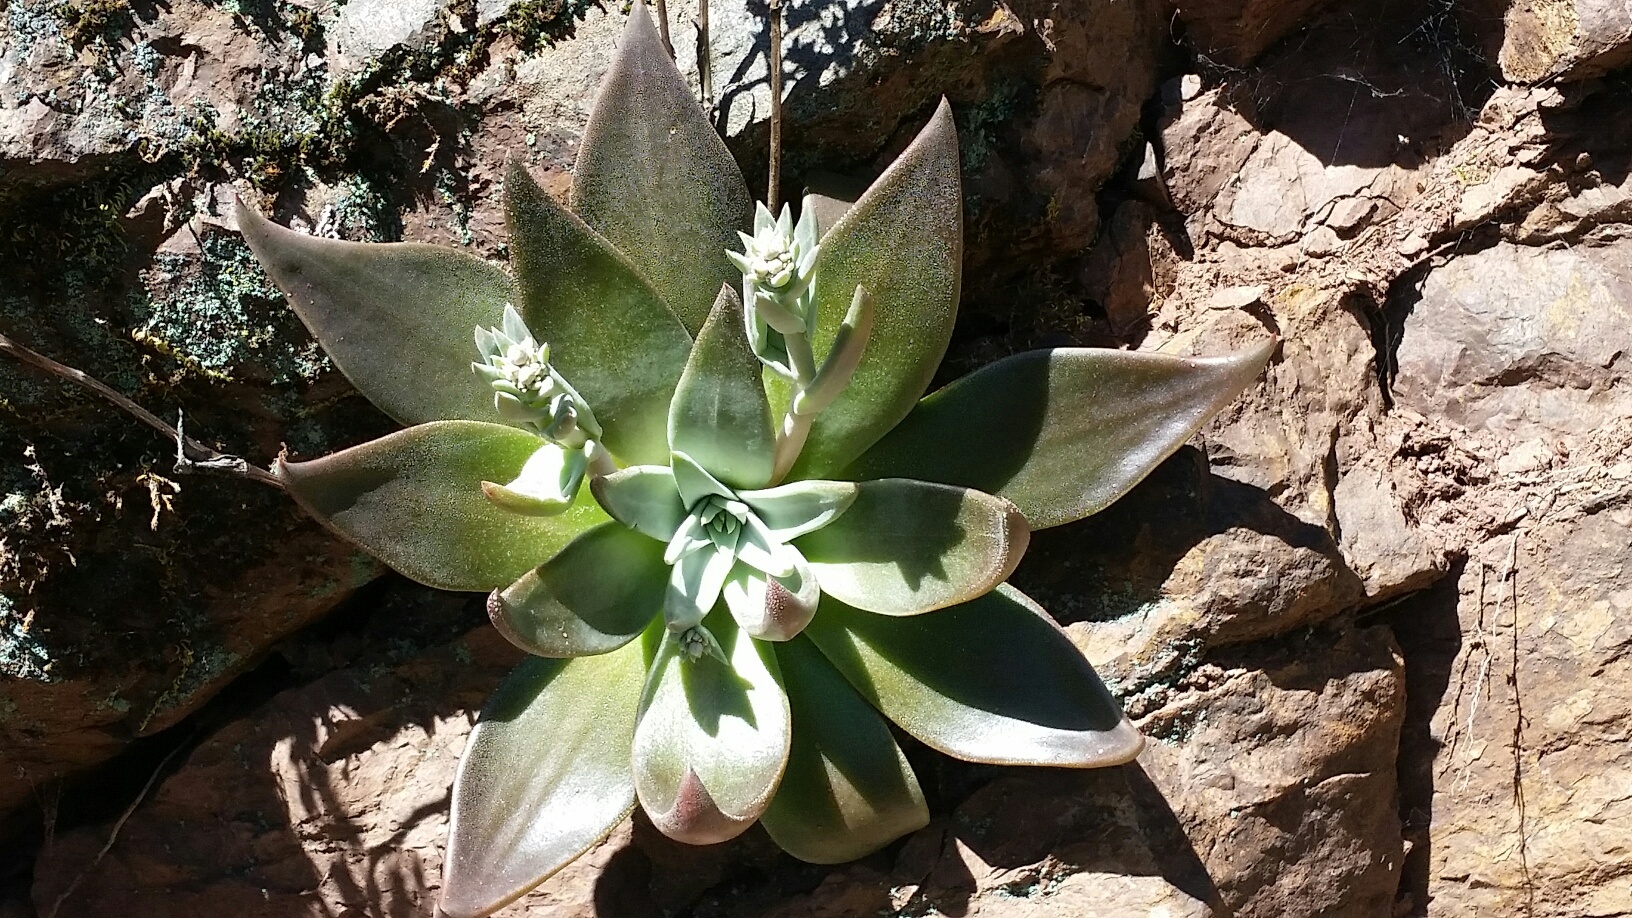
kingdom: Plantae
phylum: Tracheophyta
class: Magnoliopsida
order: Saxifragales
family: Crassulaceae
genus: Dudleya
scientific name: Dudleya cymosa
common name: Canyon dudleya
